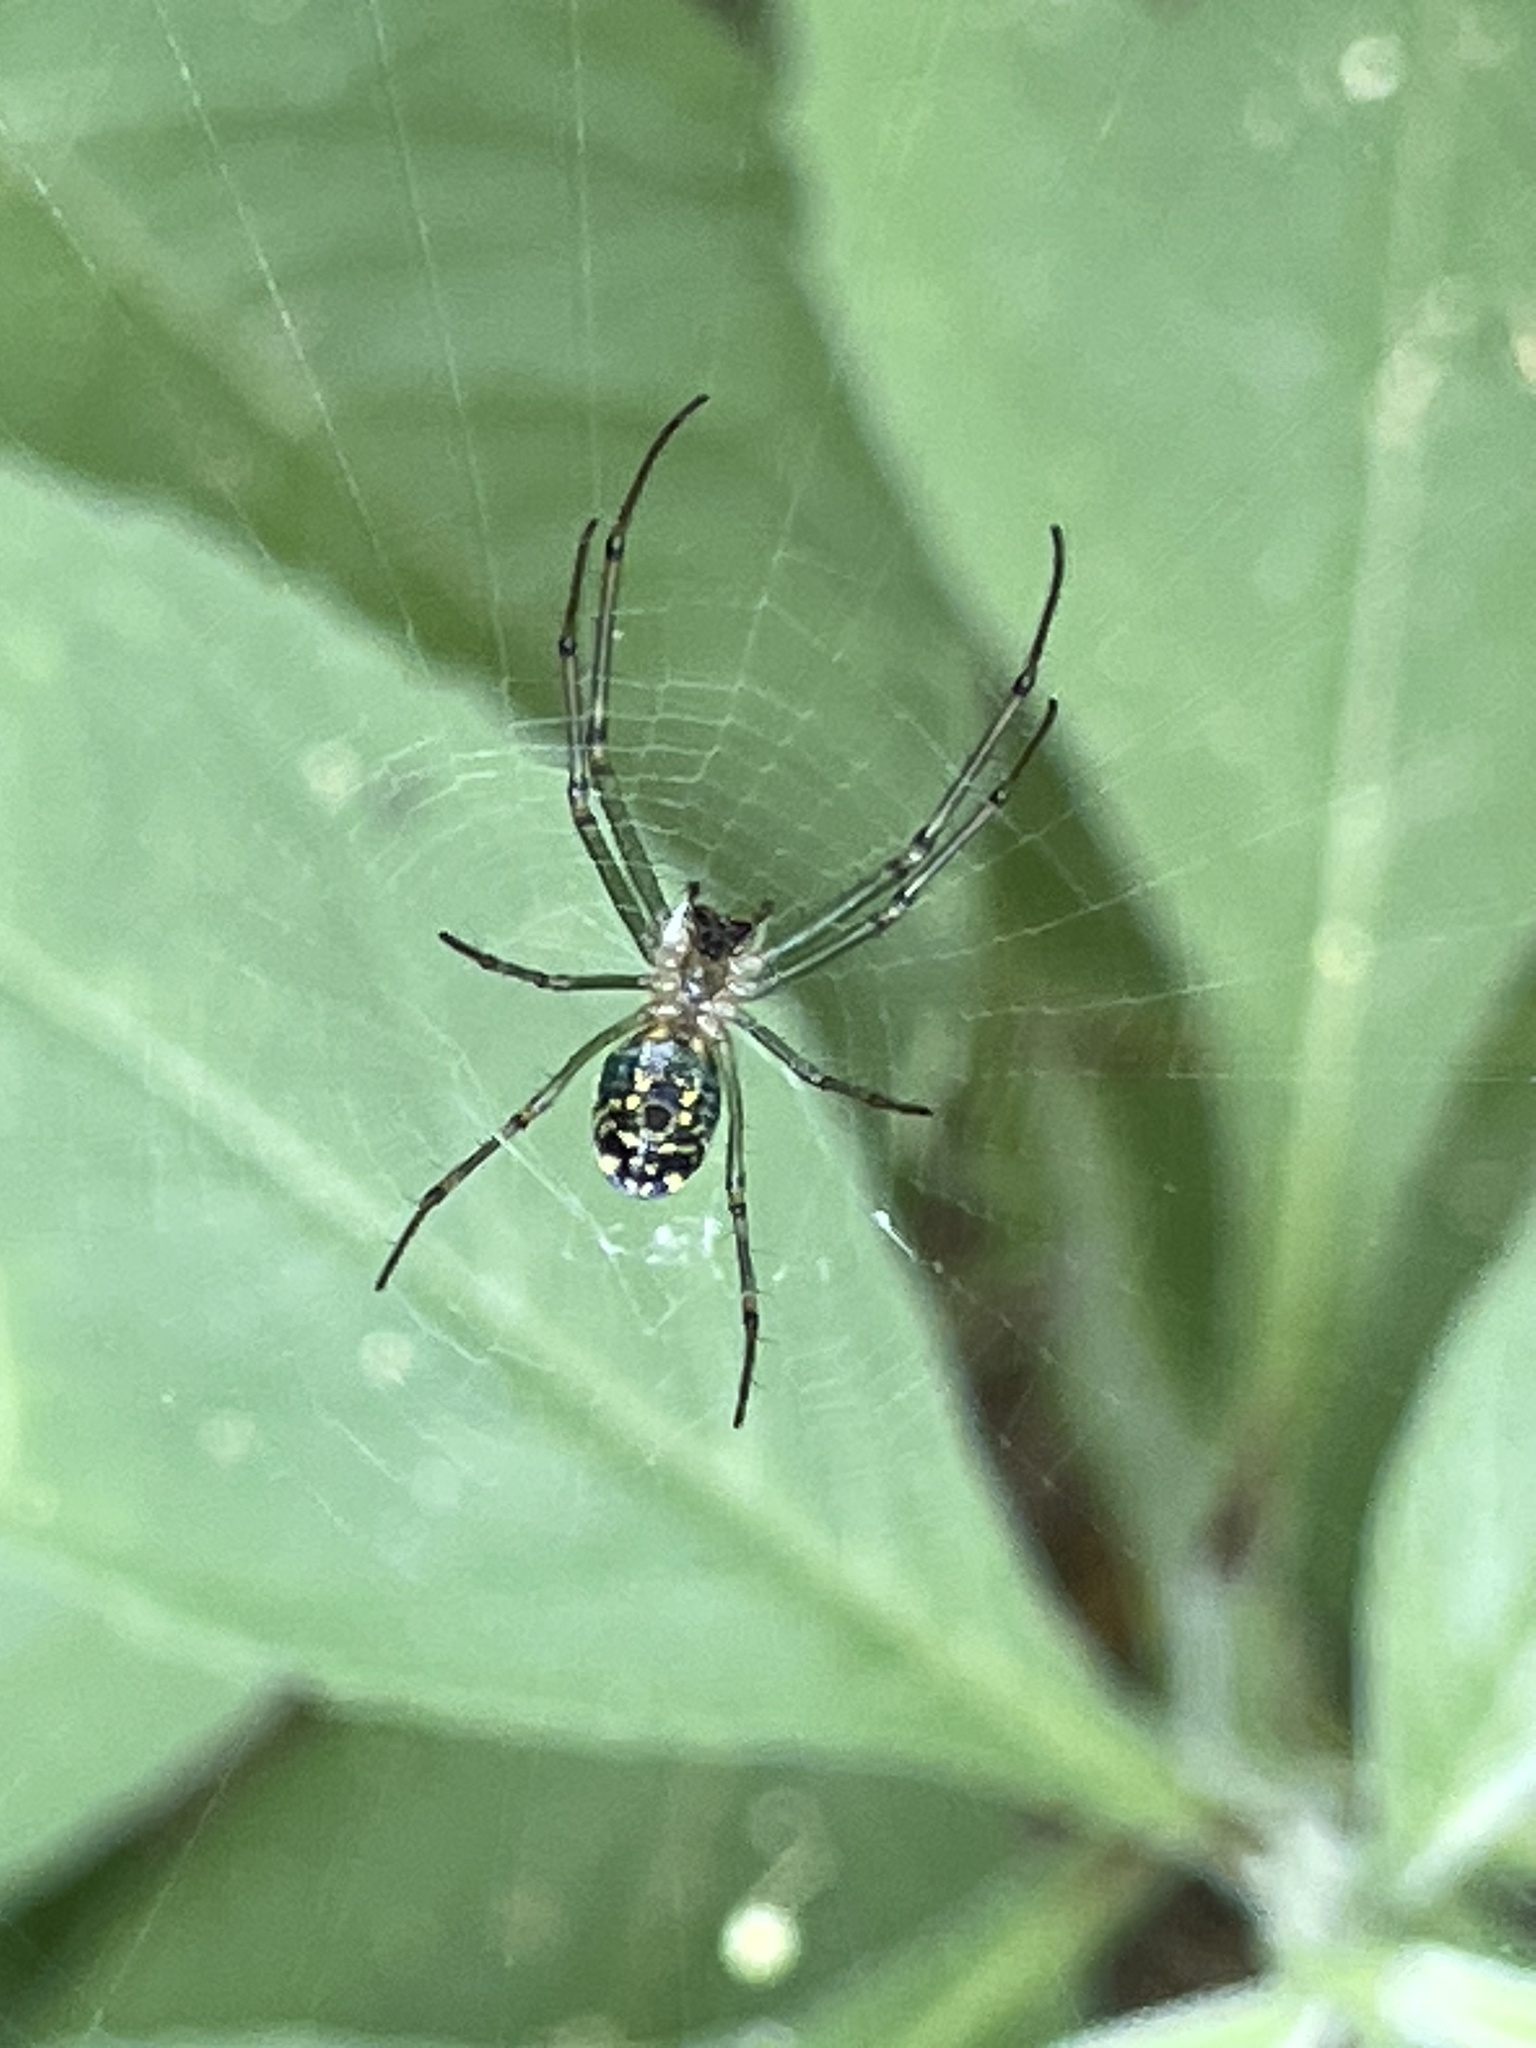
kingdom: Animalia
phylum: Arthropoda
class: Arachnida
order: Araneae
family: Tetragnathidae
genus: Leucauge
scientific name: Leucauge venusta
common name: Longjawed orb weavers
